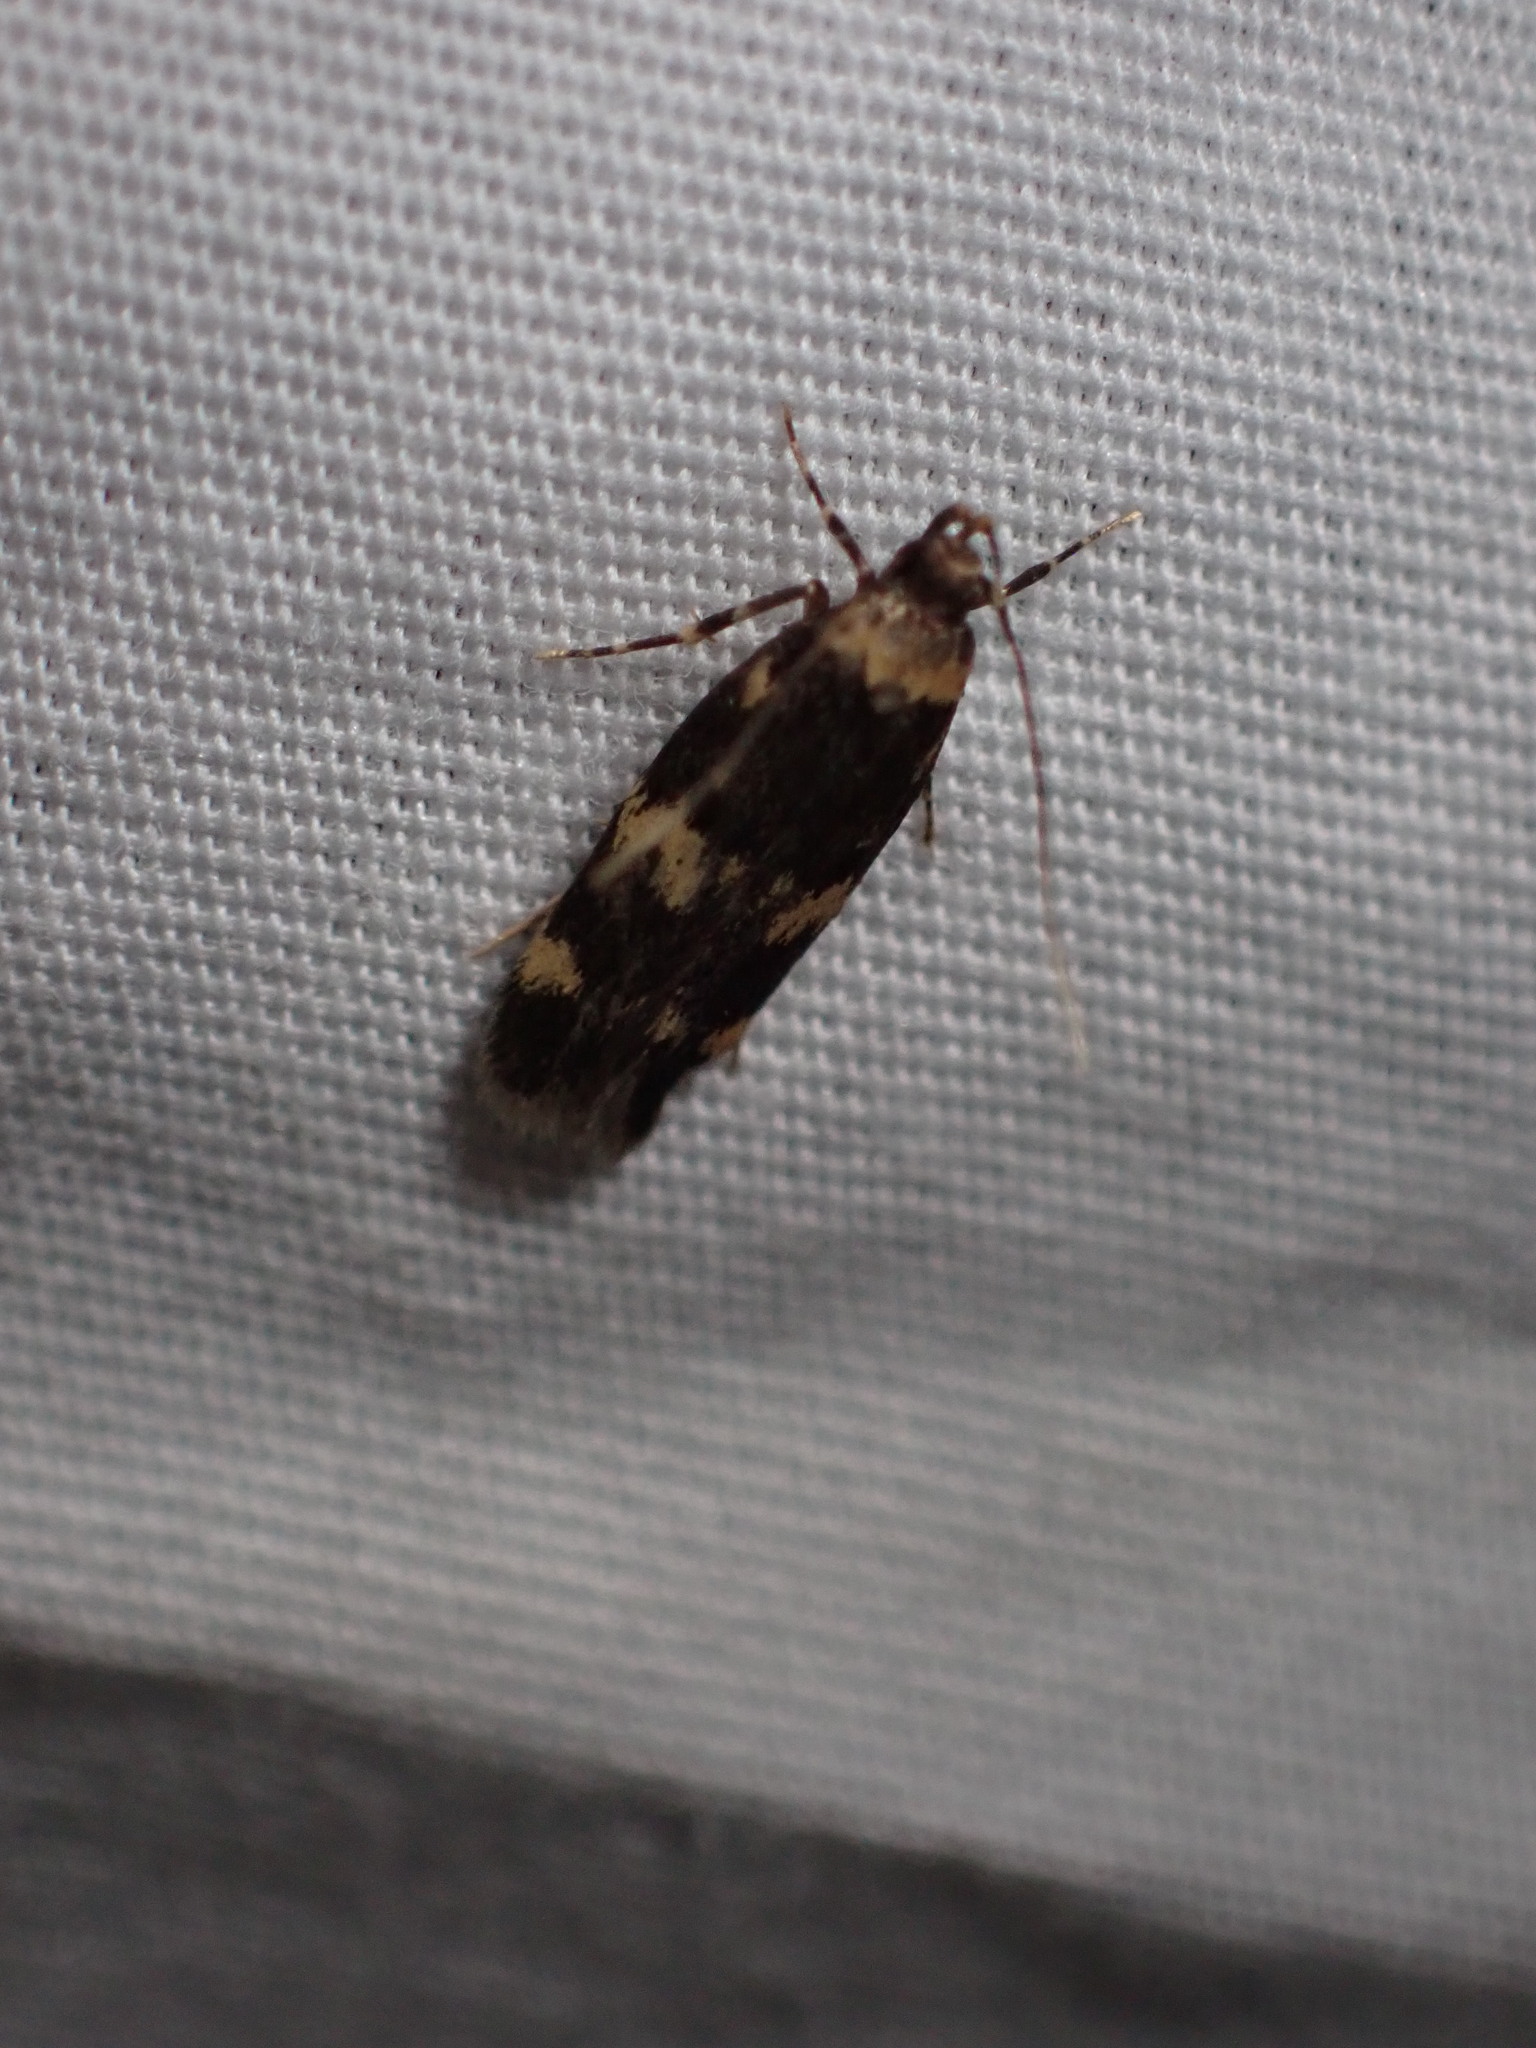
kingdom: Animalia
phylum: Arthropoda
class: Insecta
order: Lepidoptera
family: Autostichidae
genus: Oegoconia
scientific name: Oegoconia quadripuncta
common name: Four-spotted obscure
